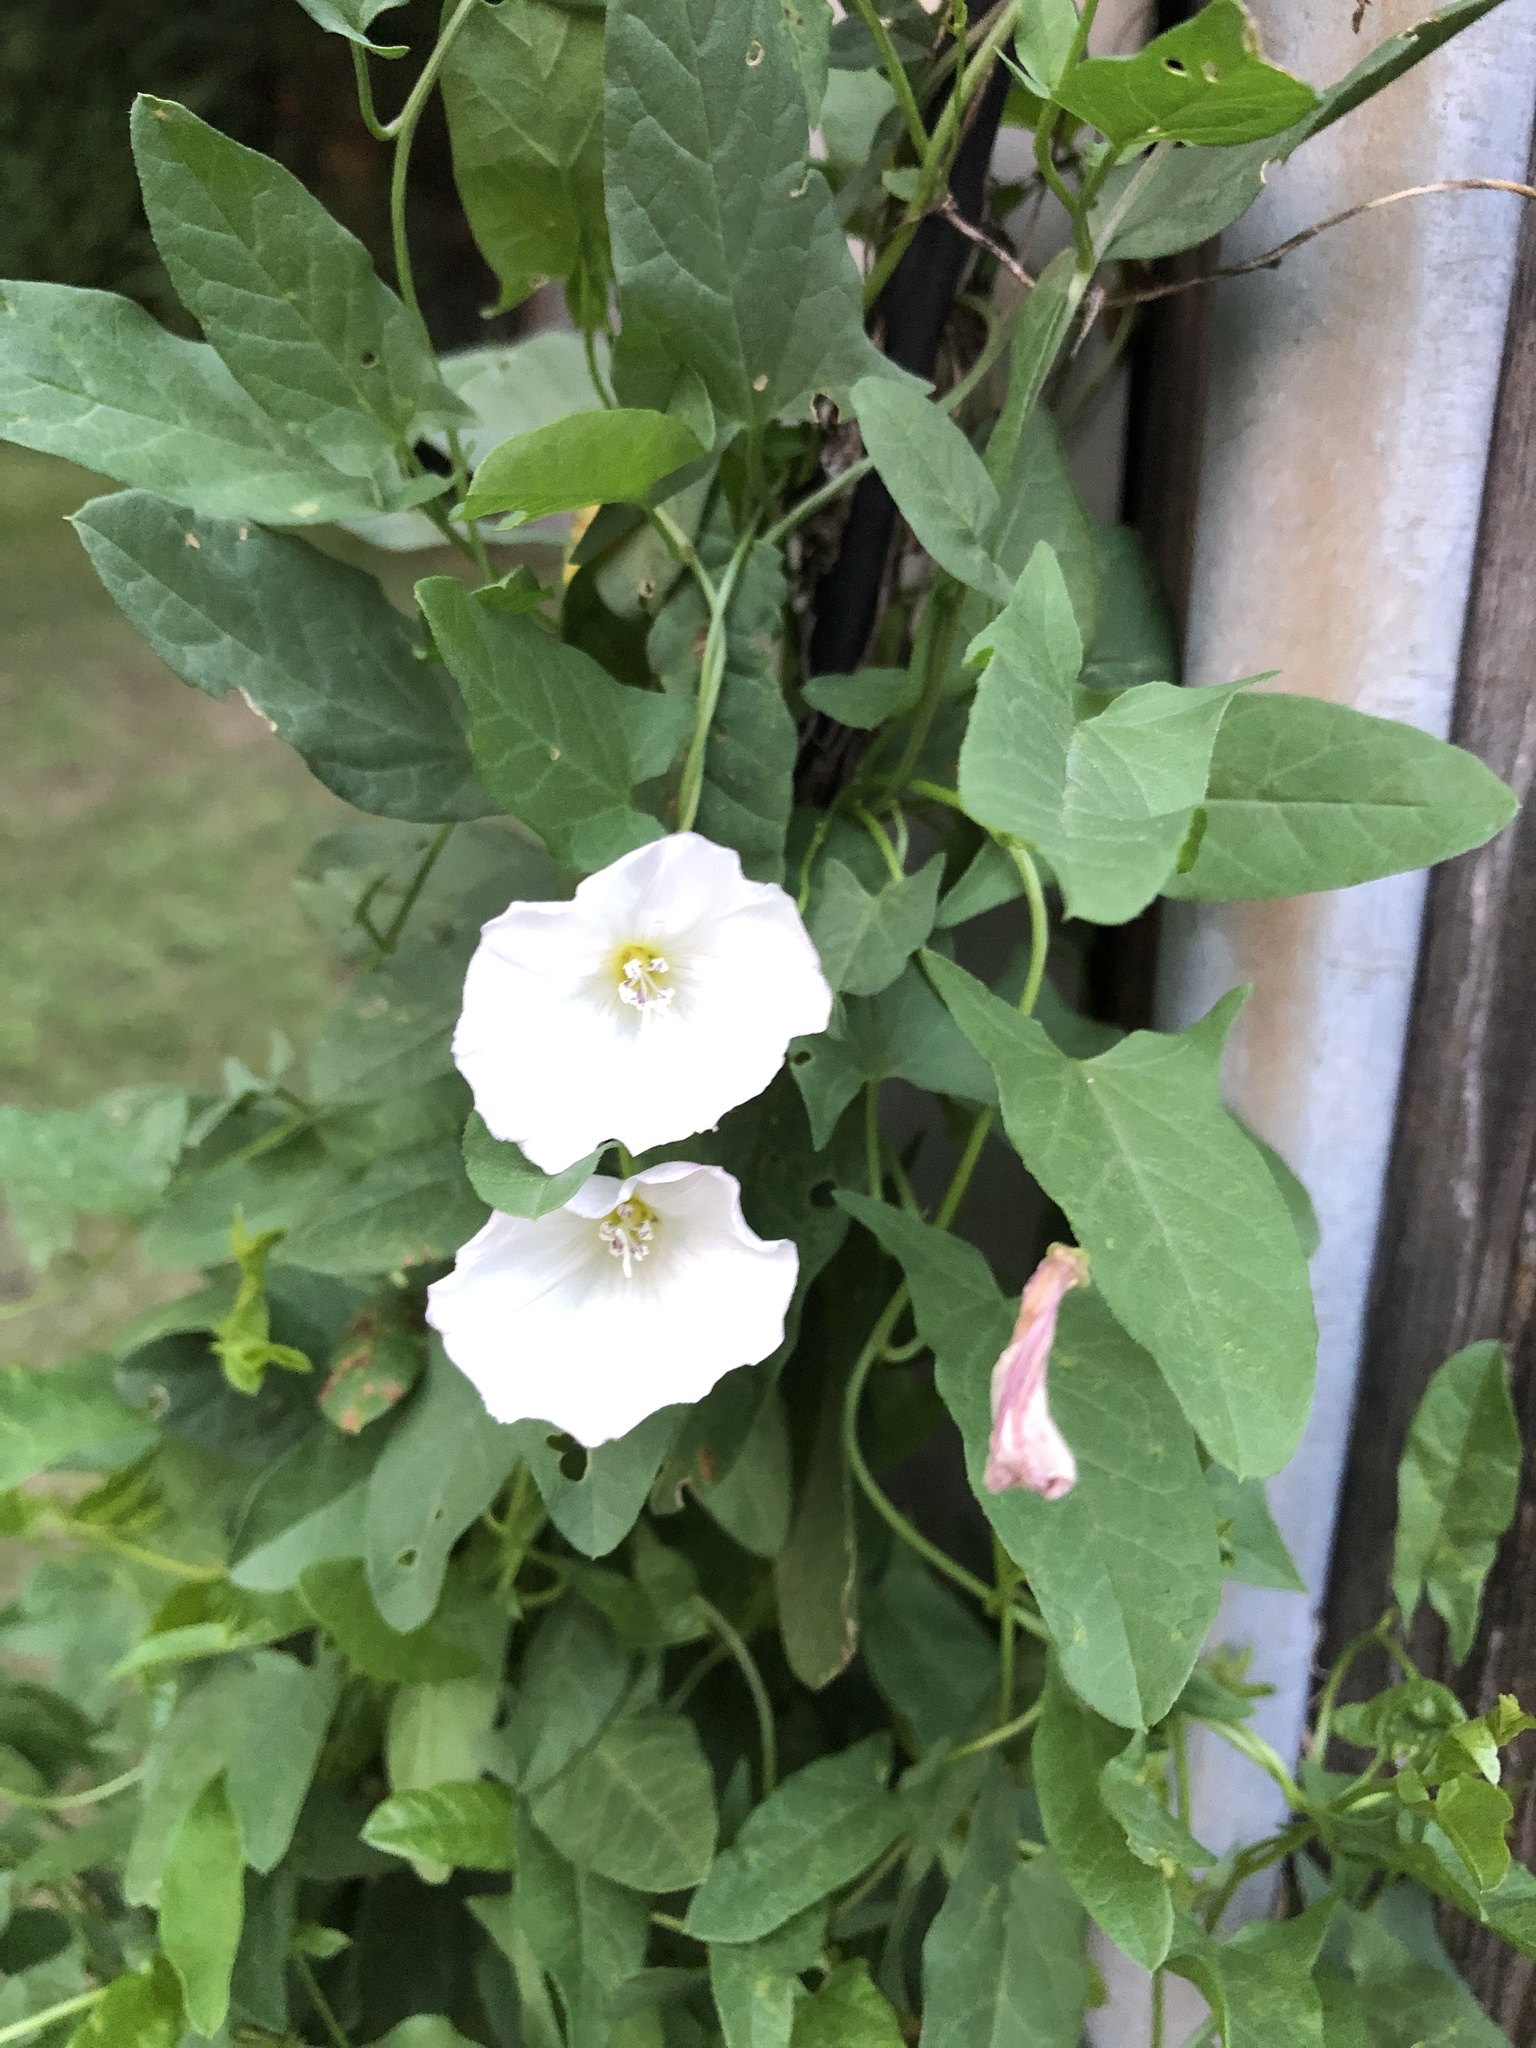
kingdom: Plantae
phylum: Tracheophyta
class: Magnoliopsida
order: Solanales
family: Convolvulaceae
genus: Convolvulus
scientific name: Convolvulus arvensis
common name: Field bindweed
